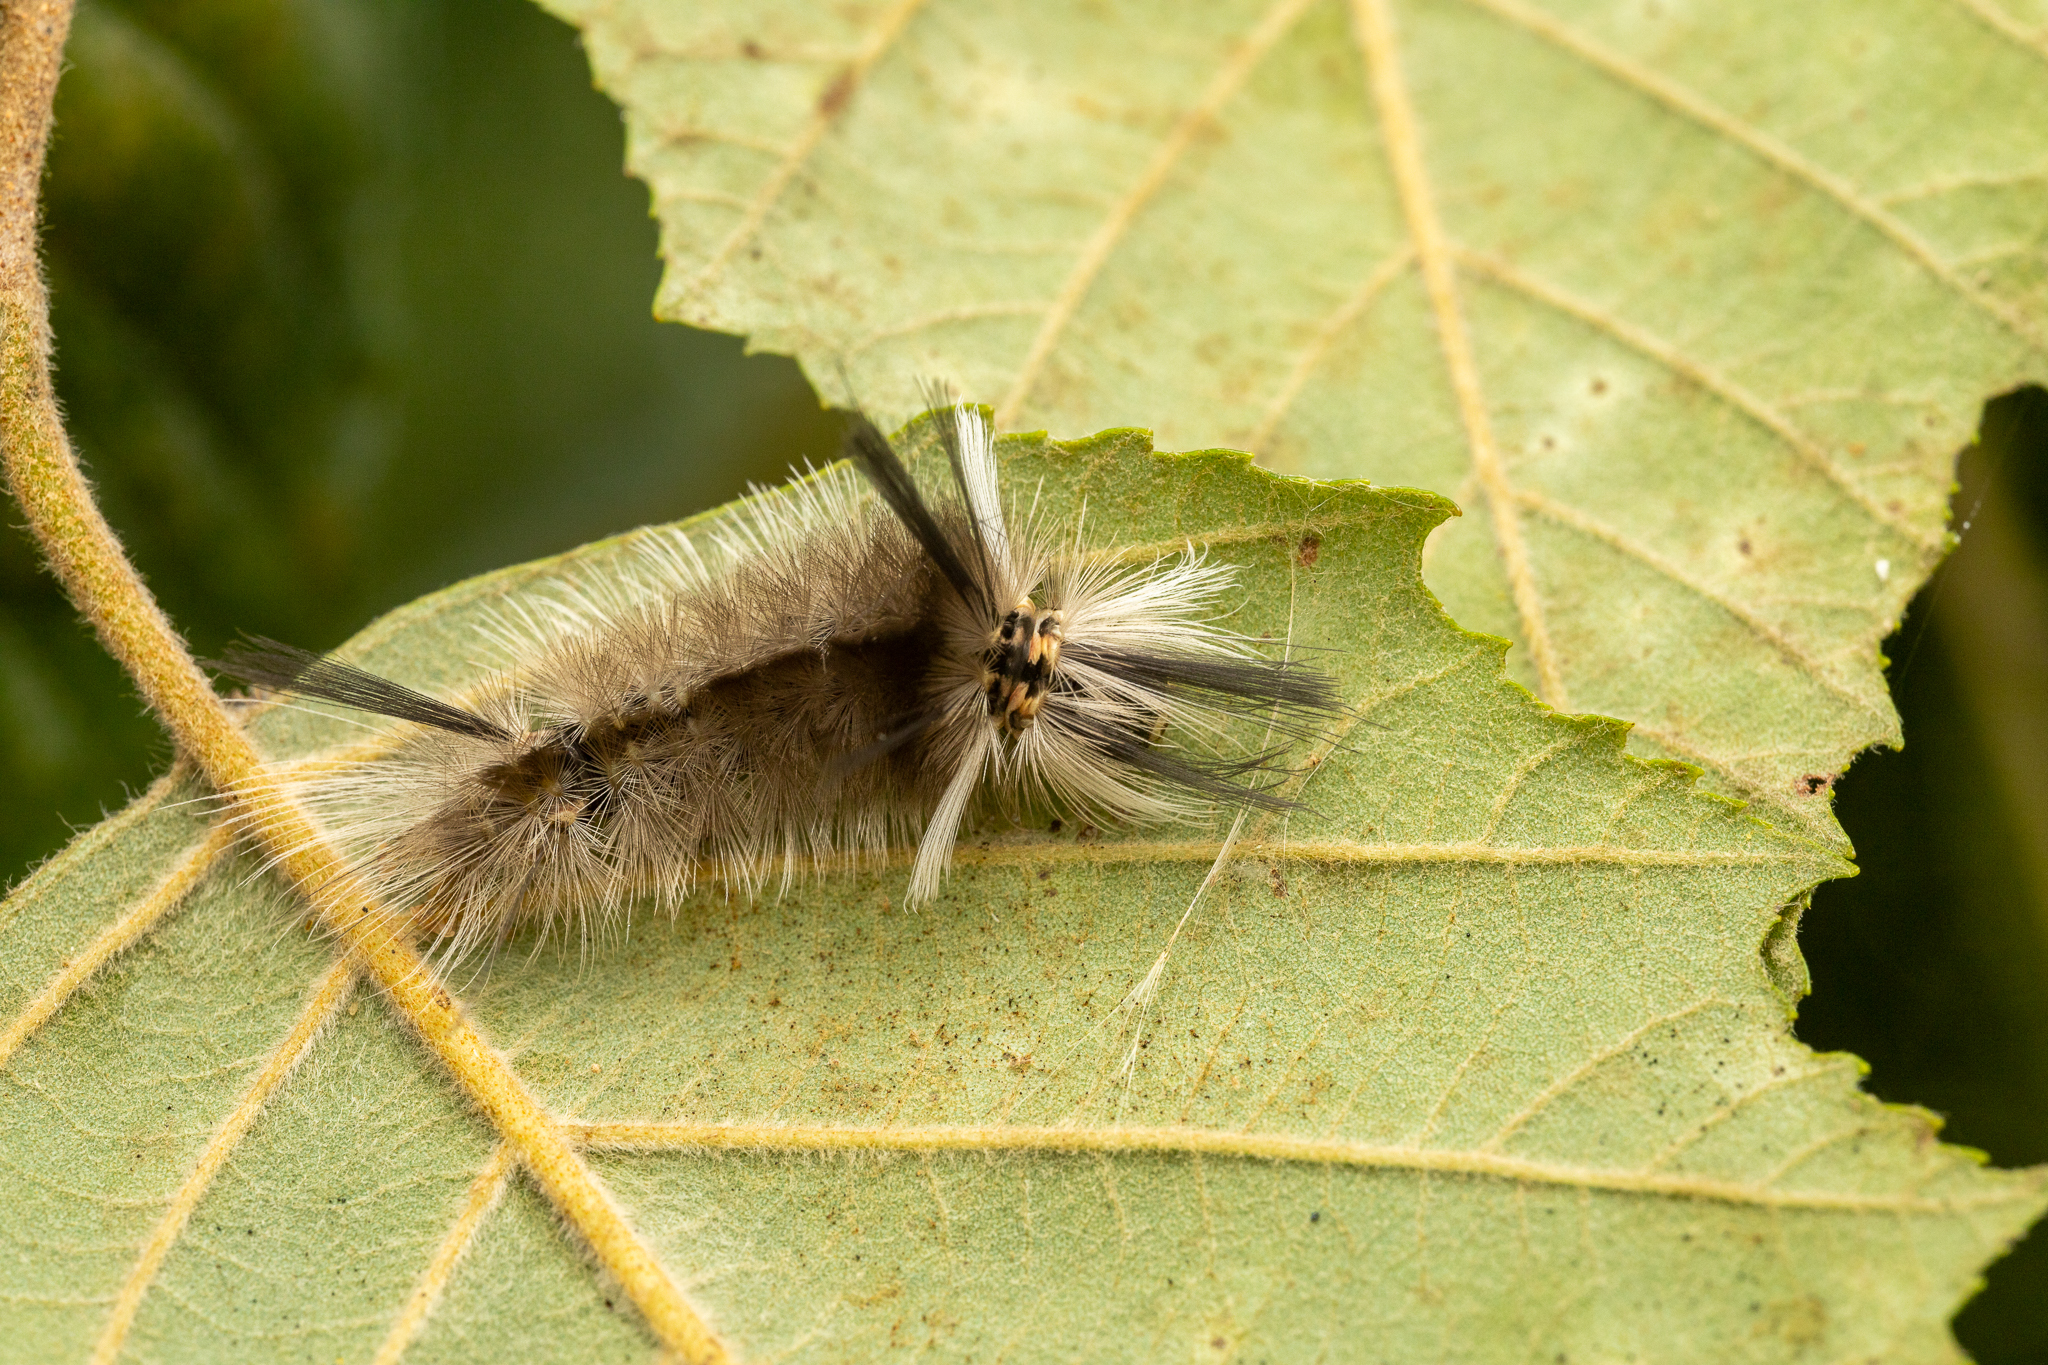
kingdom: Animalia
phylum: Arthropoda
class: Insecta
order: Lepidoptera
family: Erebidae
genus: Halysidota
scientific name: Halysidota tessellaris
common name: Banded tussock moth
